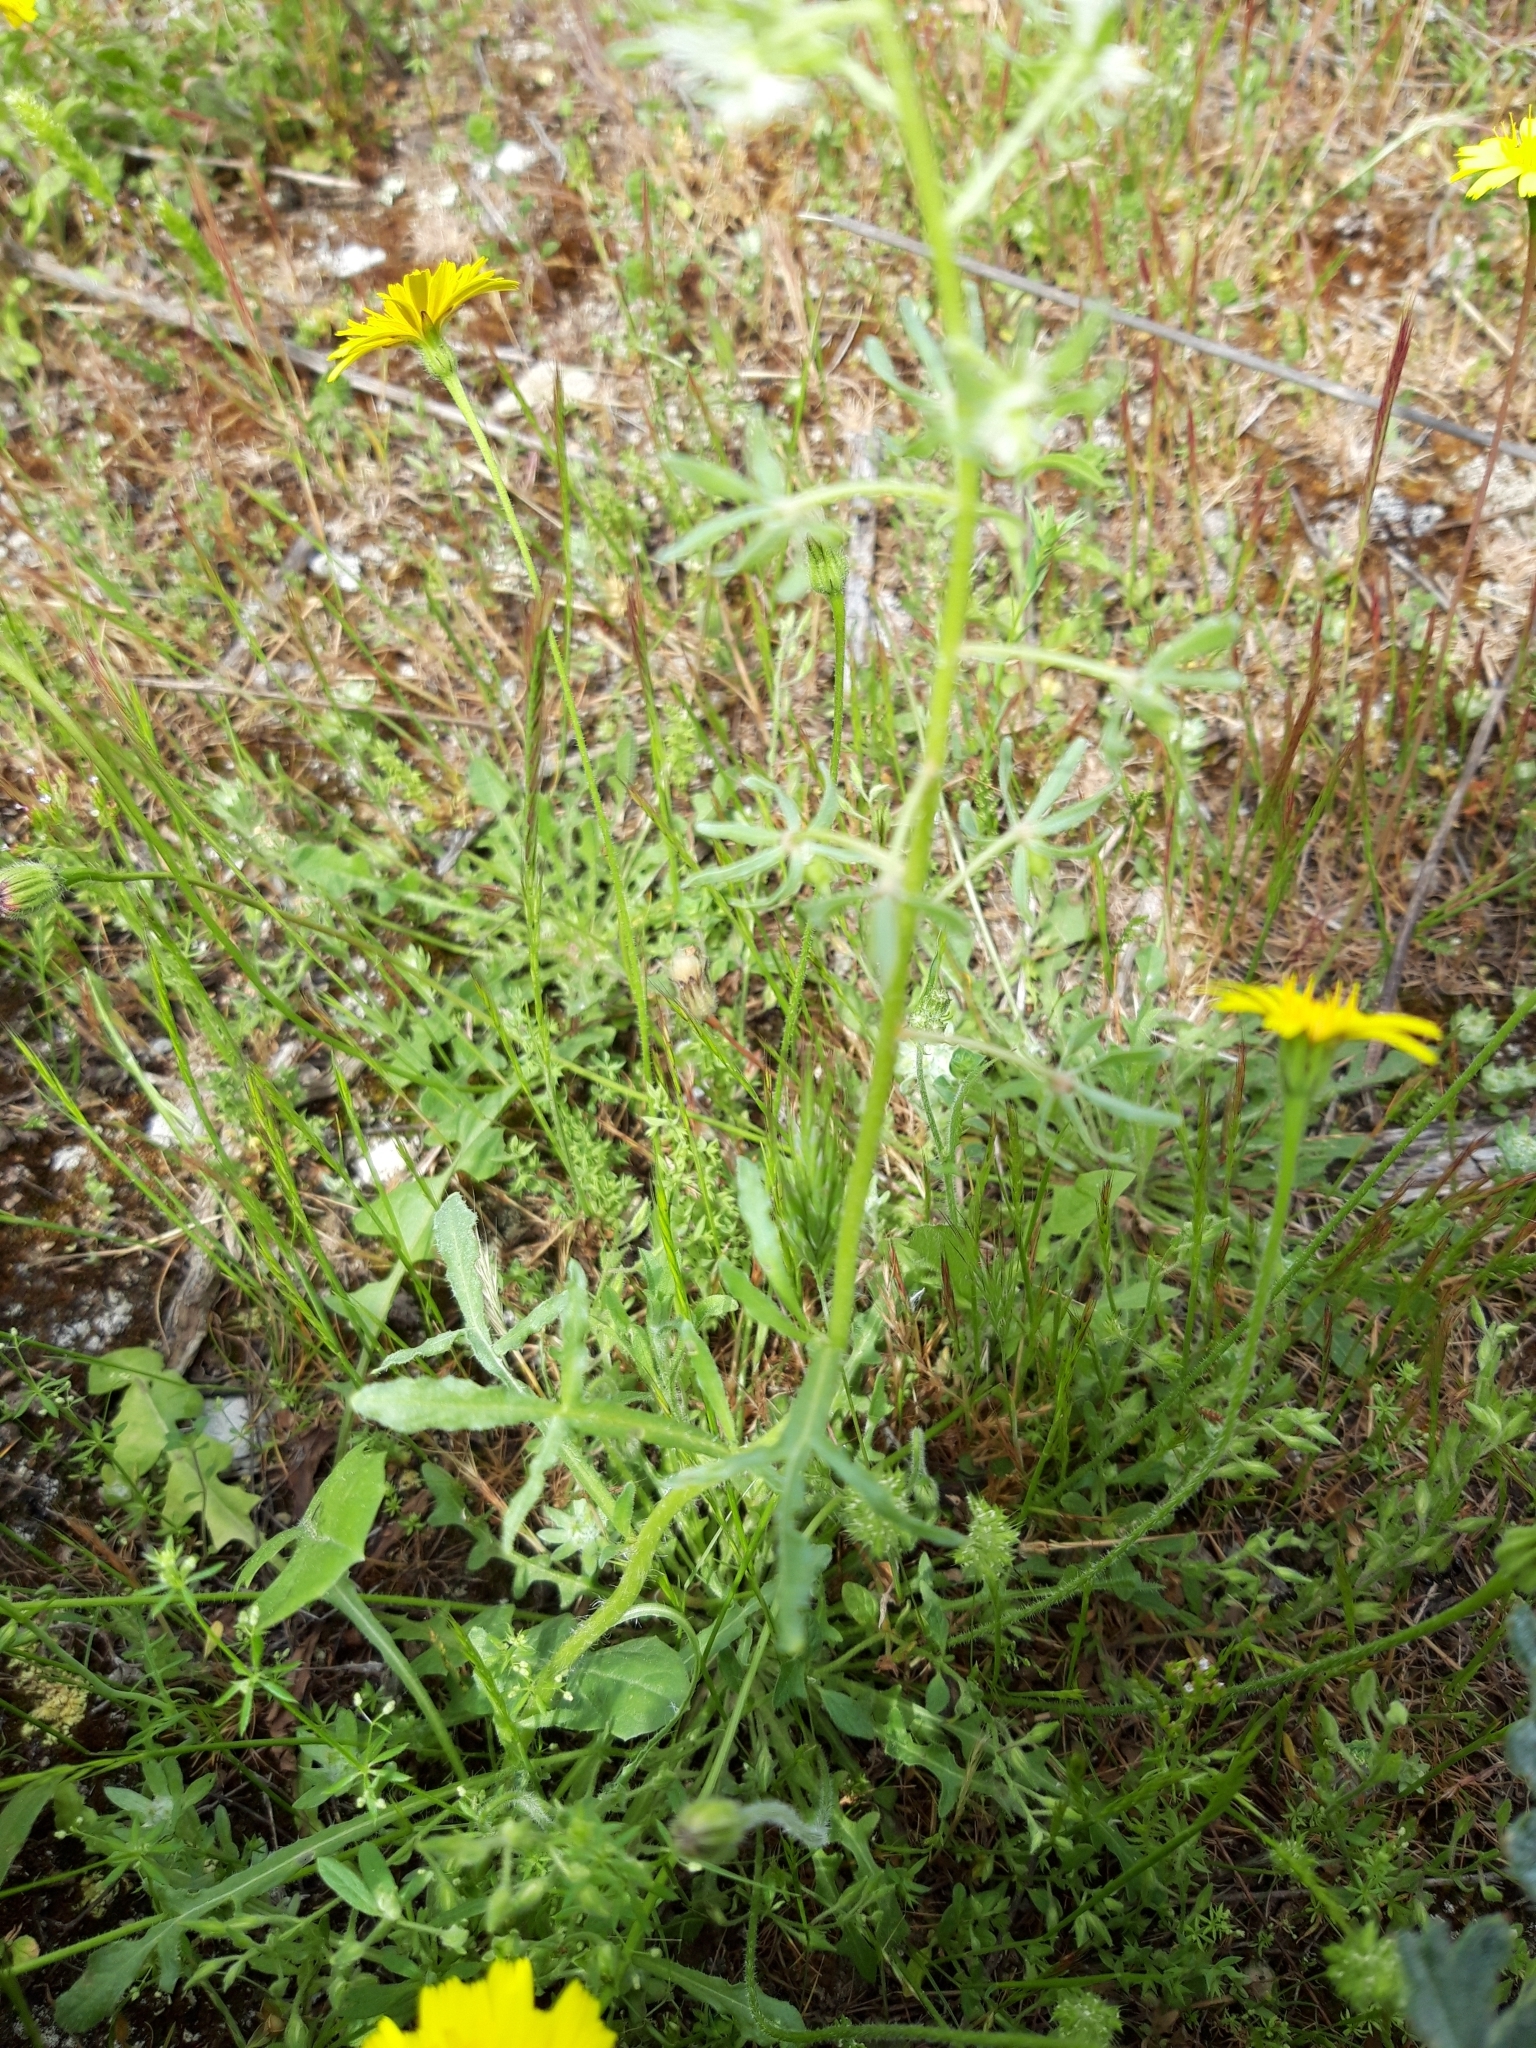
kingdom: Plantae
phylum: Tracheophyta
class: Magnoliopsida
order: Brassicales
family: Resedaceae
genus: Reseda
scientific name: Reseda phyteuma
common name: Corn mignonette
